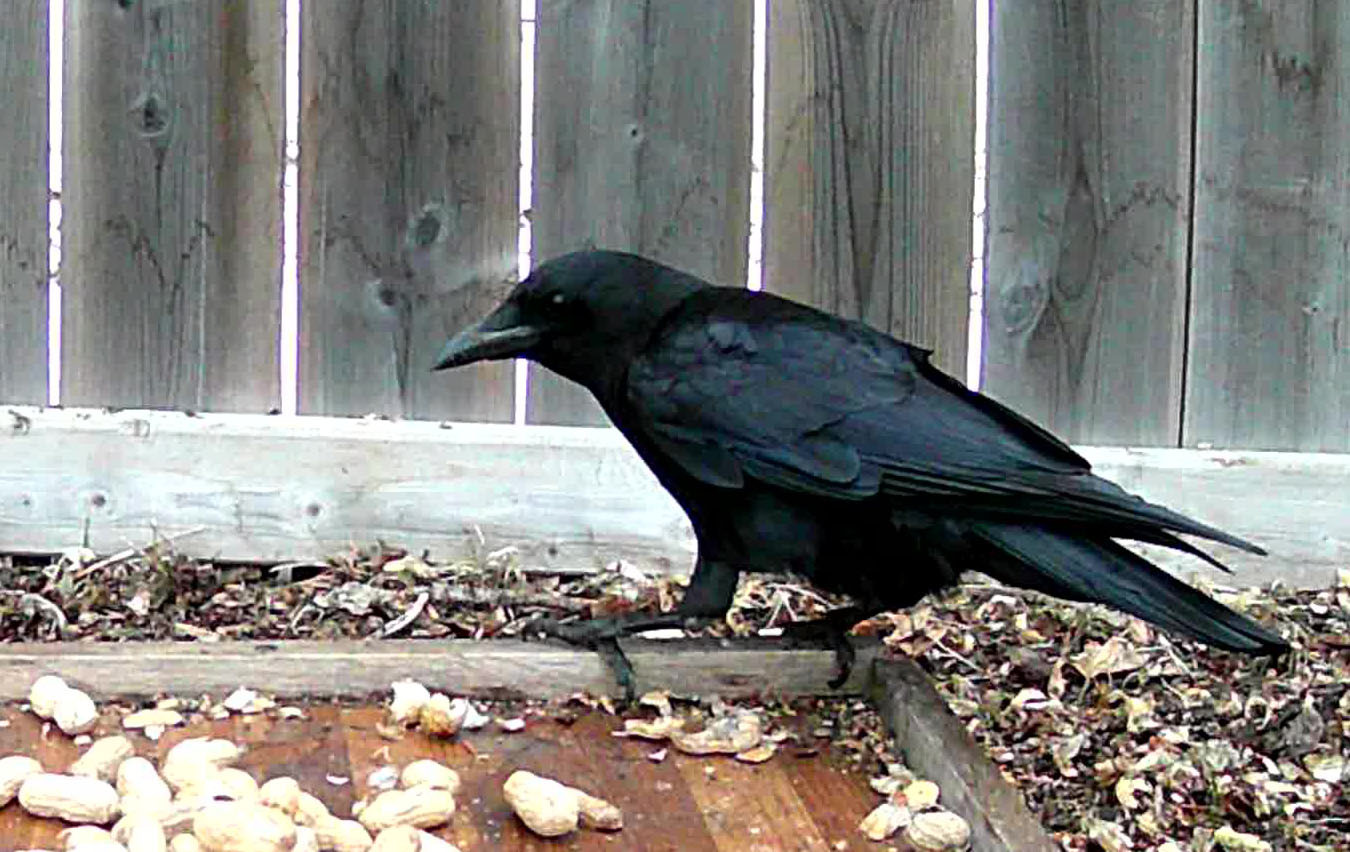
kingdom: Animalia
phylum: Chordata
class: Aves
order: Passeriformes
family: Corvidae
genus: Corvus
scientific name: Corvus brachyrhynchos
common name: American crow
